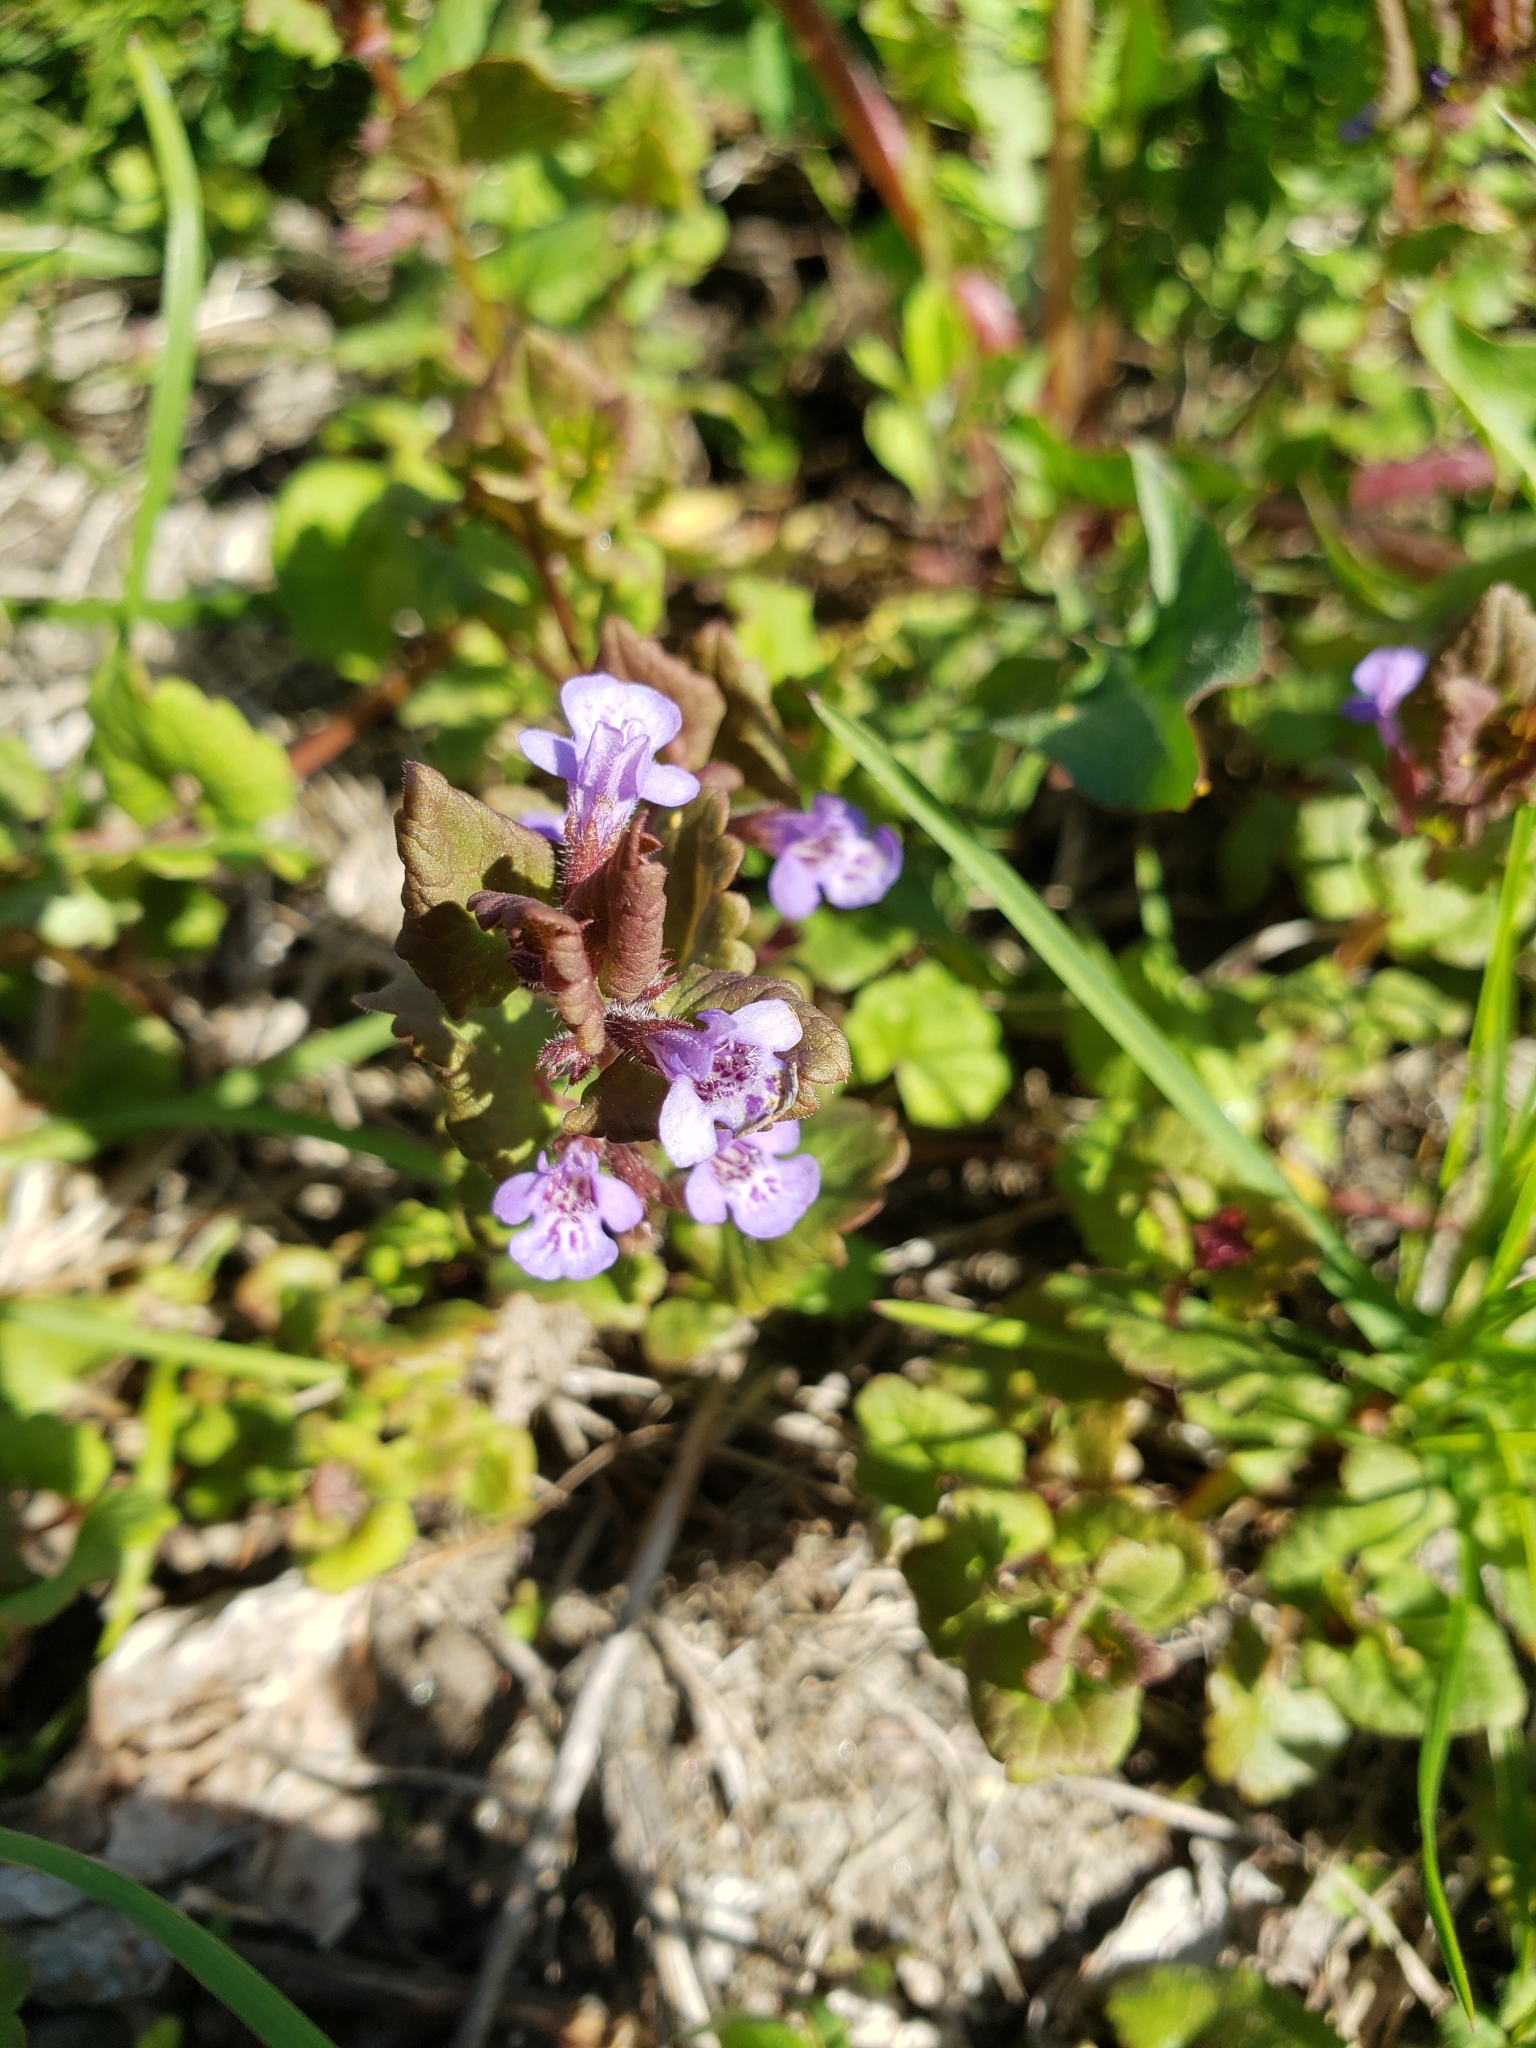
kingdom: Plantae
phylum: Tracheophyta
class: Magnoliopsida
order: Lamiales
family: Lamiaceae
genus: Glechoma
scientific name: Glechoma hederacea
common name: Ground ivy
